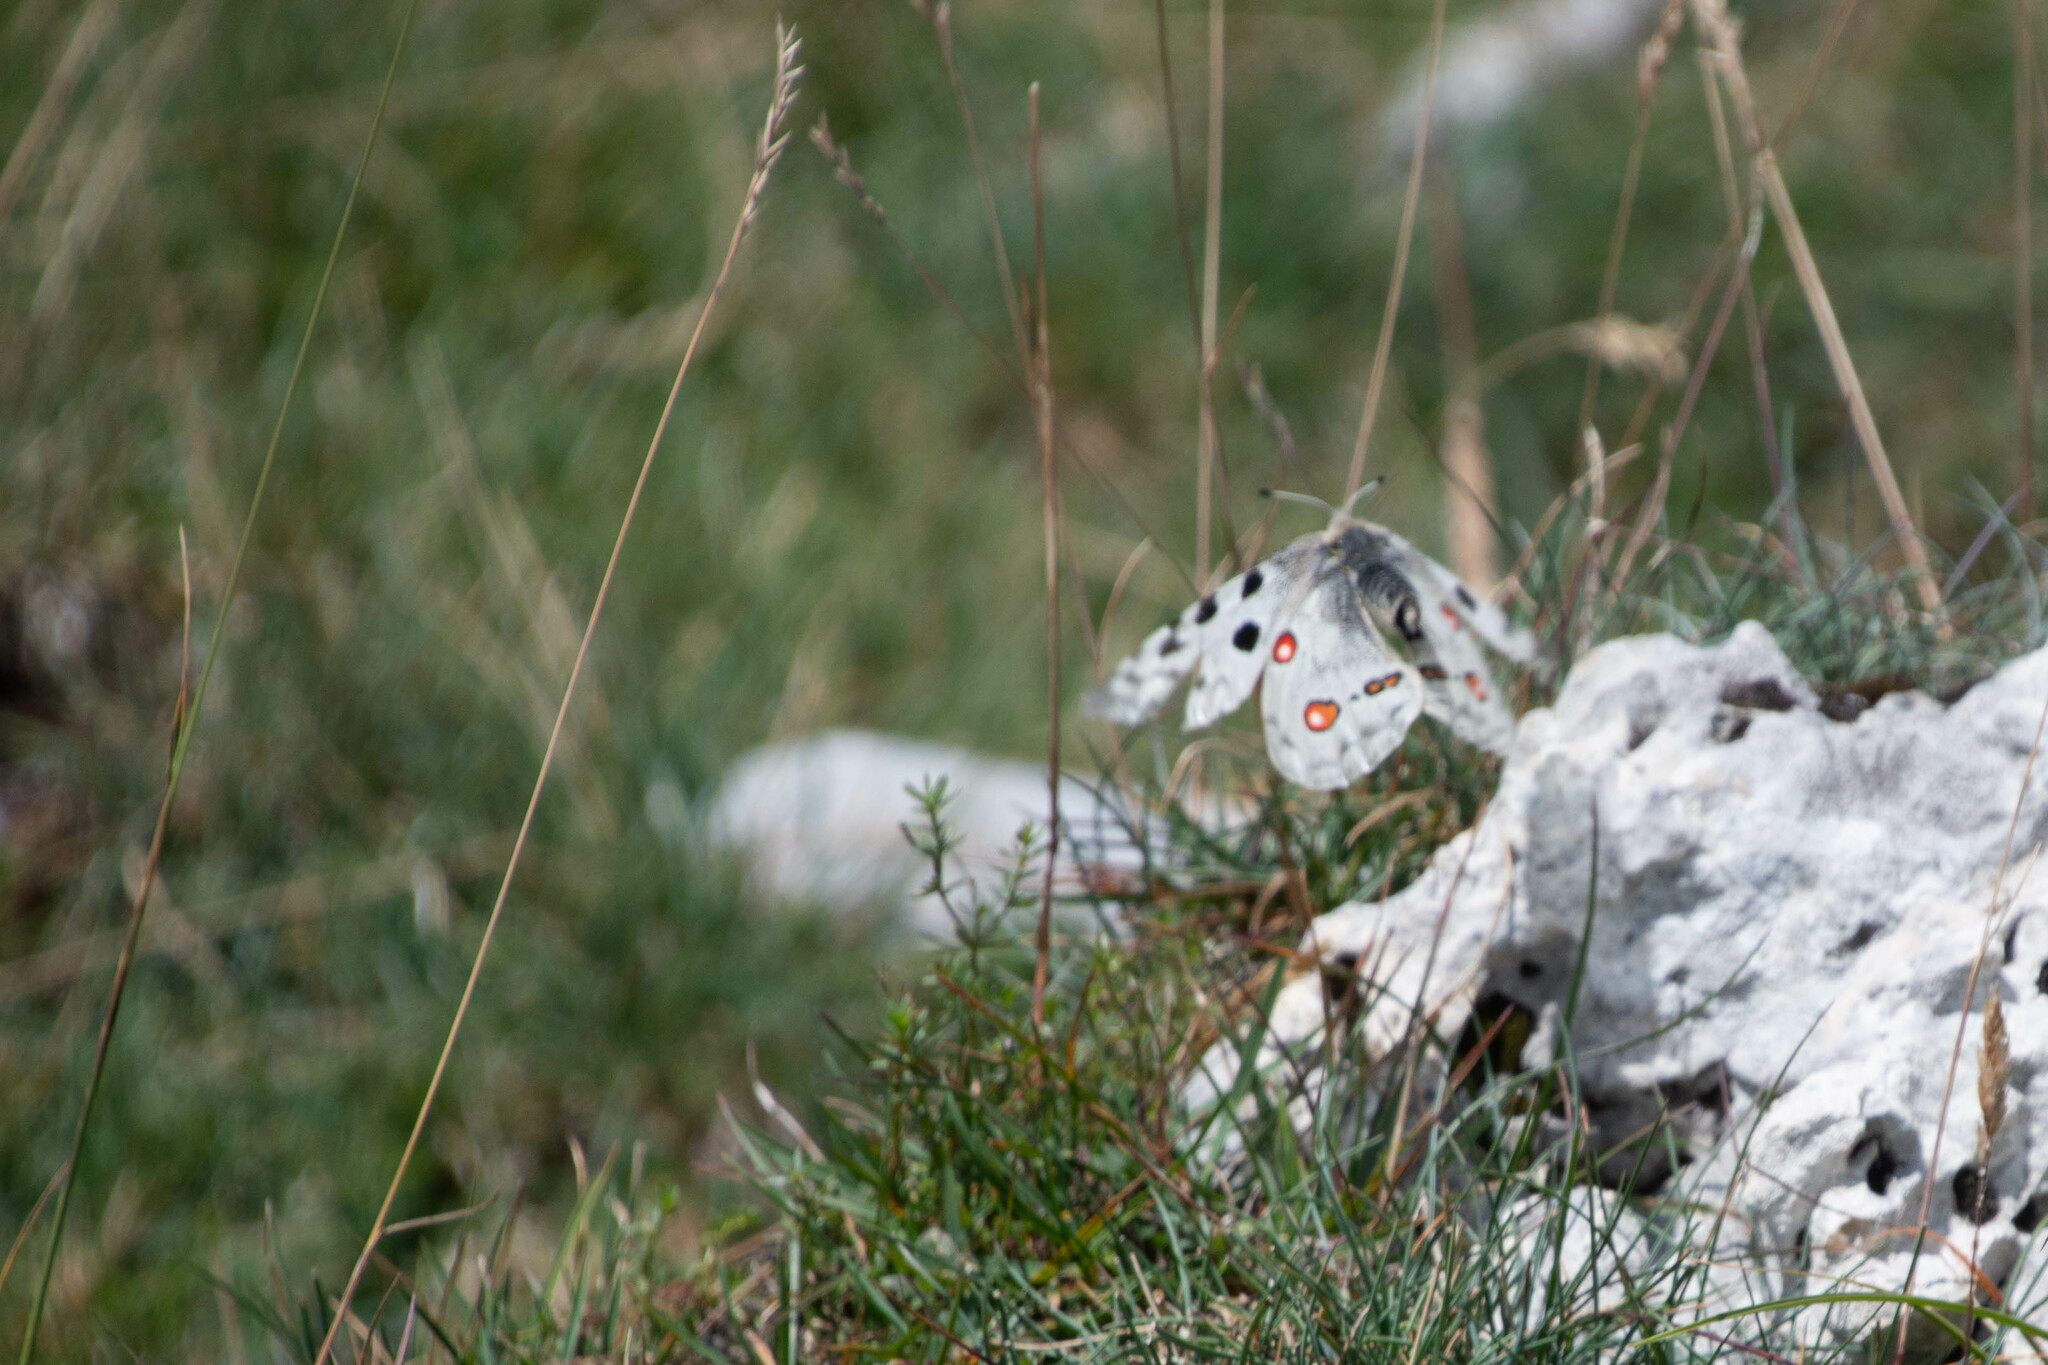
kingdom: Animalia
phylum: Arthropoda
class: Insecta
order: Lepidoptera
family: Papilionidae
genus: Parnassius
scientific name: Parnassius apollo
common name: Apollo
